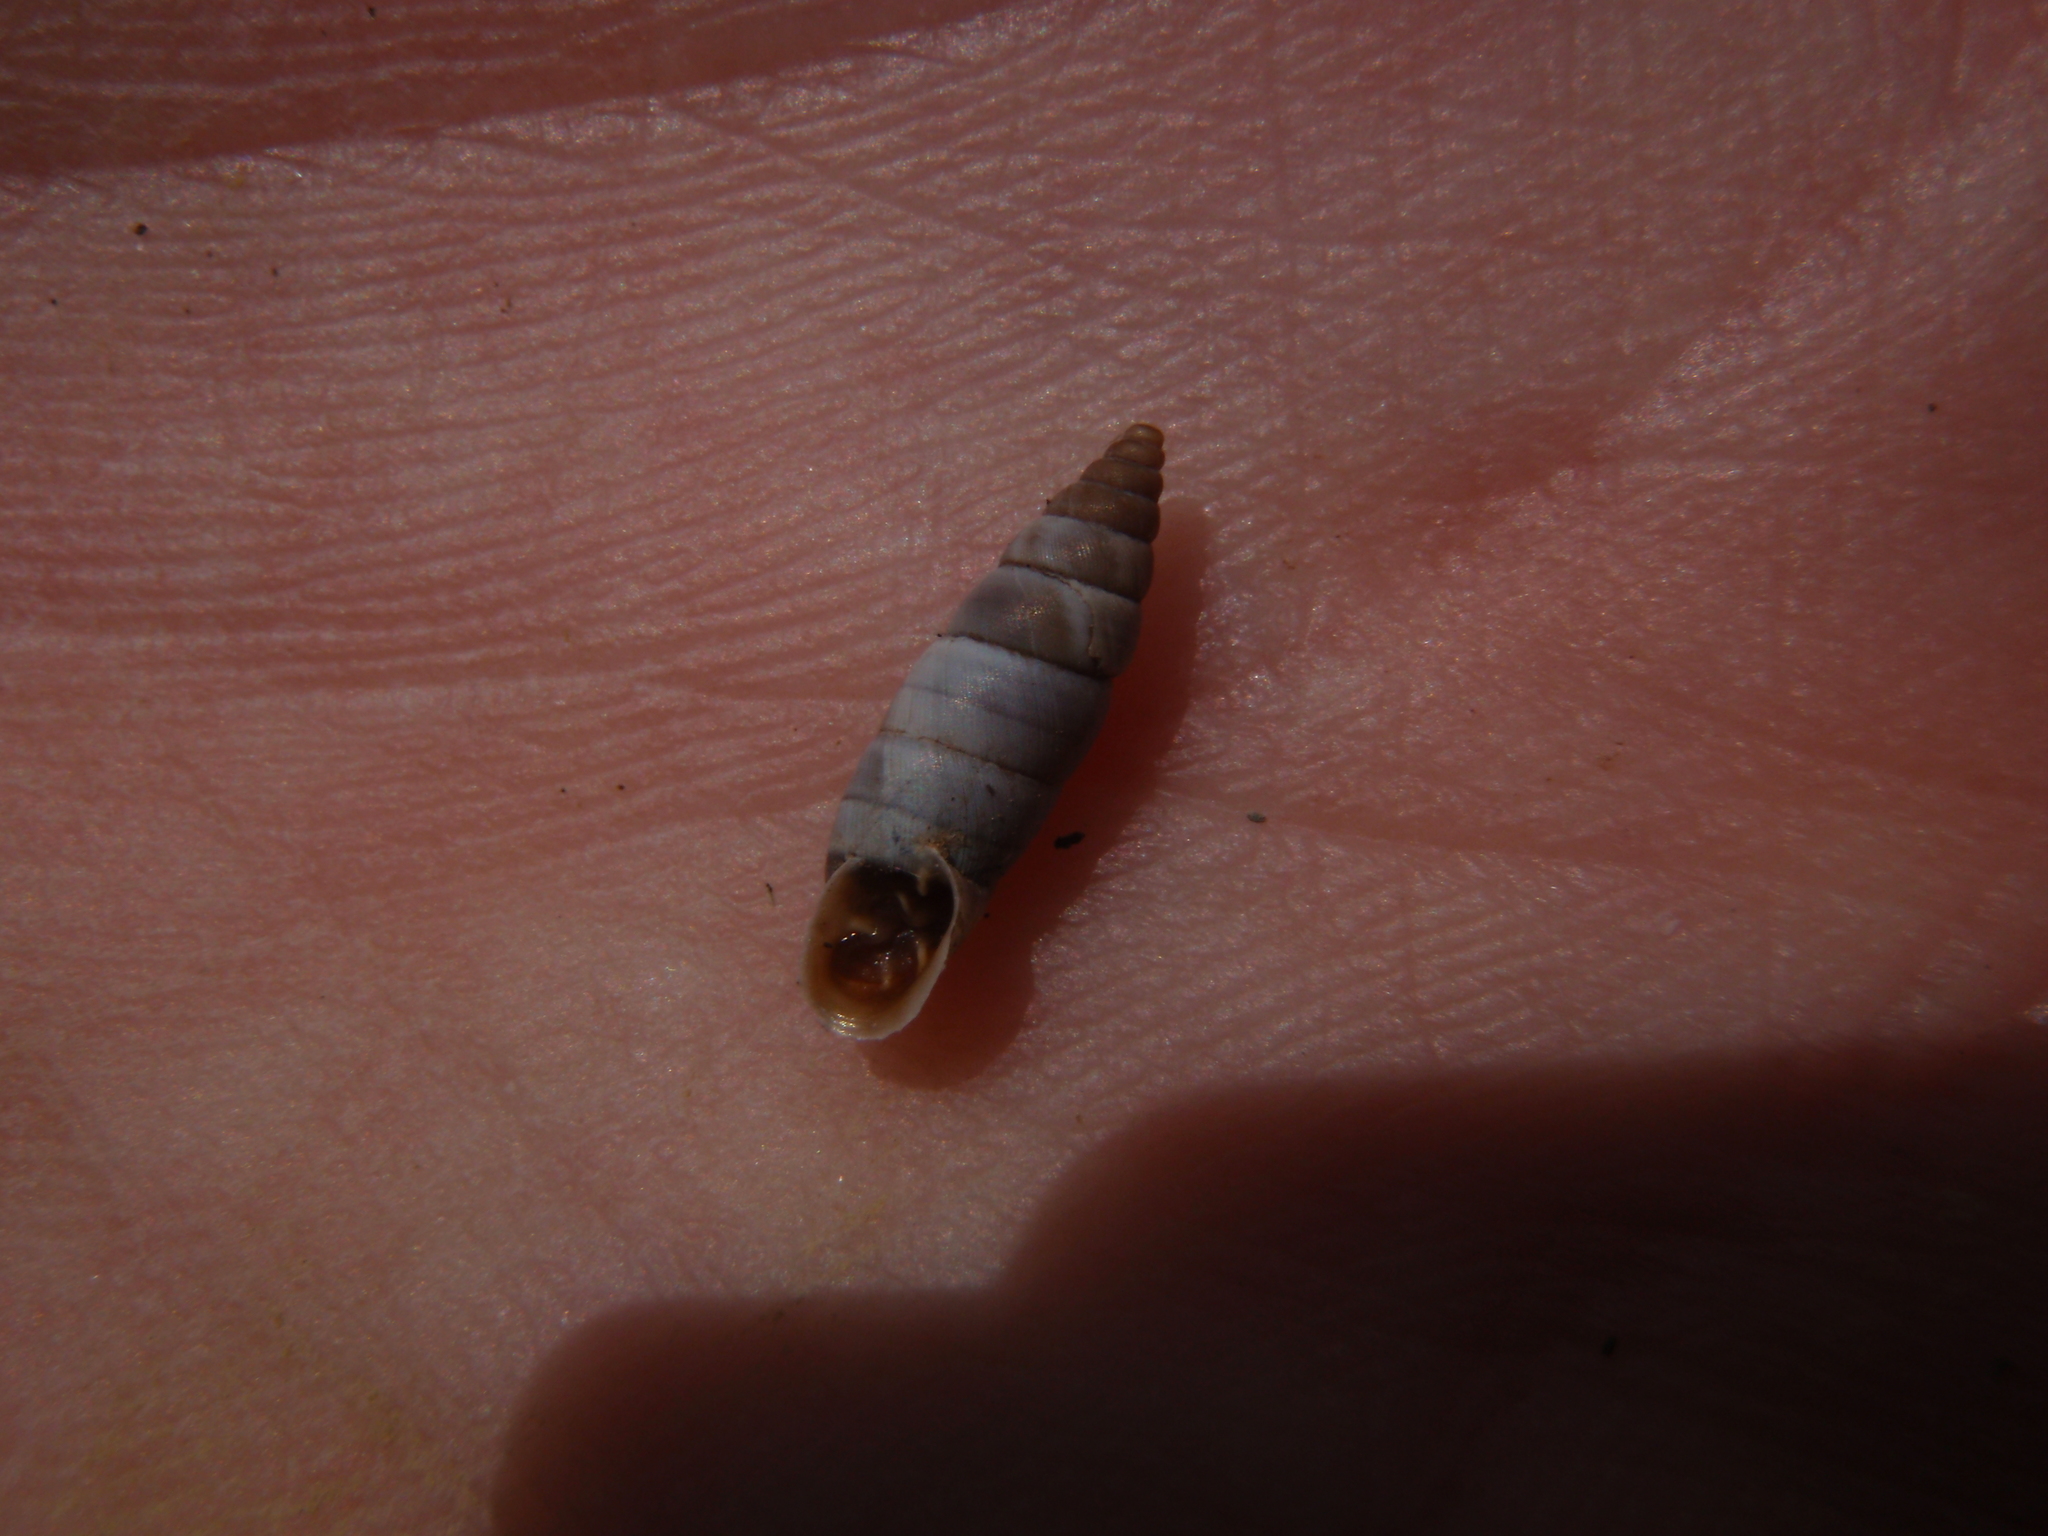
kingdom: Animalia
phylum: Mollusca
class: Gastropoda
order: Stylommatophora
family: Chondrinidae
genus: Solatopupa
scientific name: Solatopupa similis
